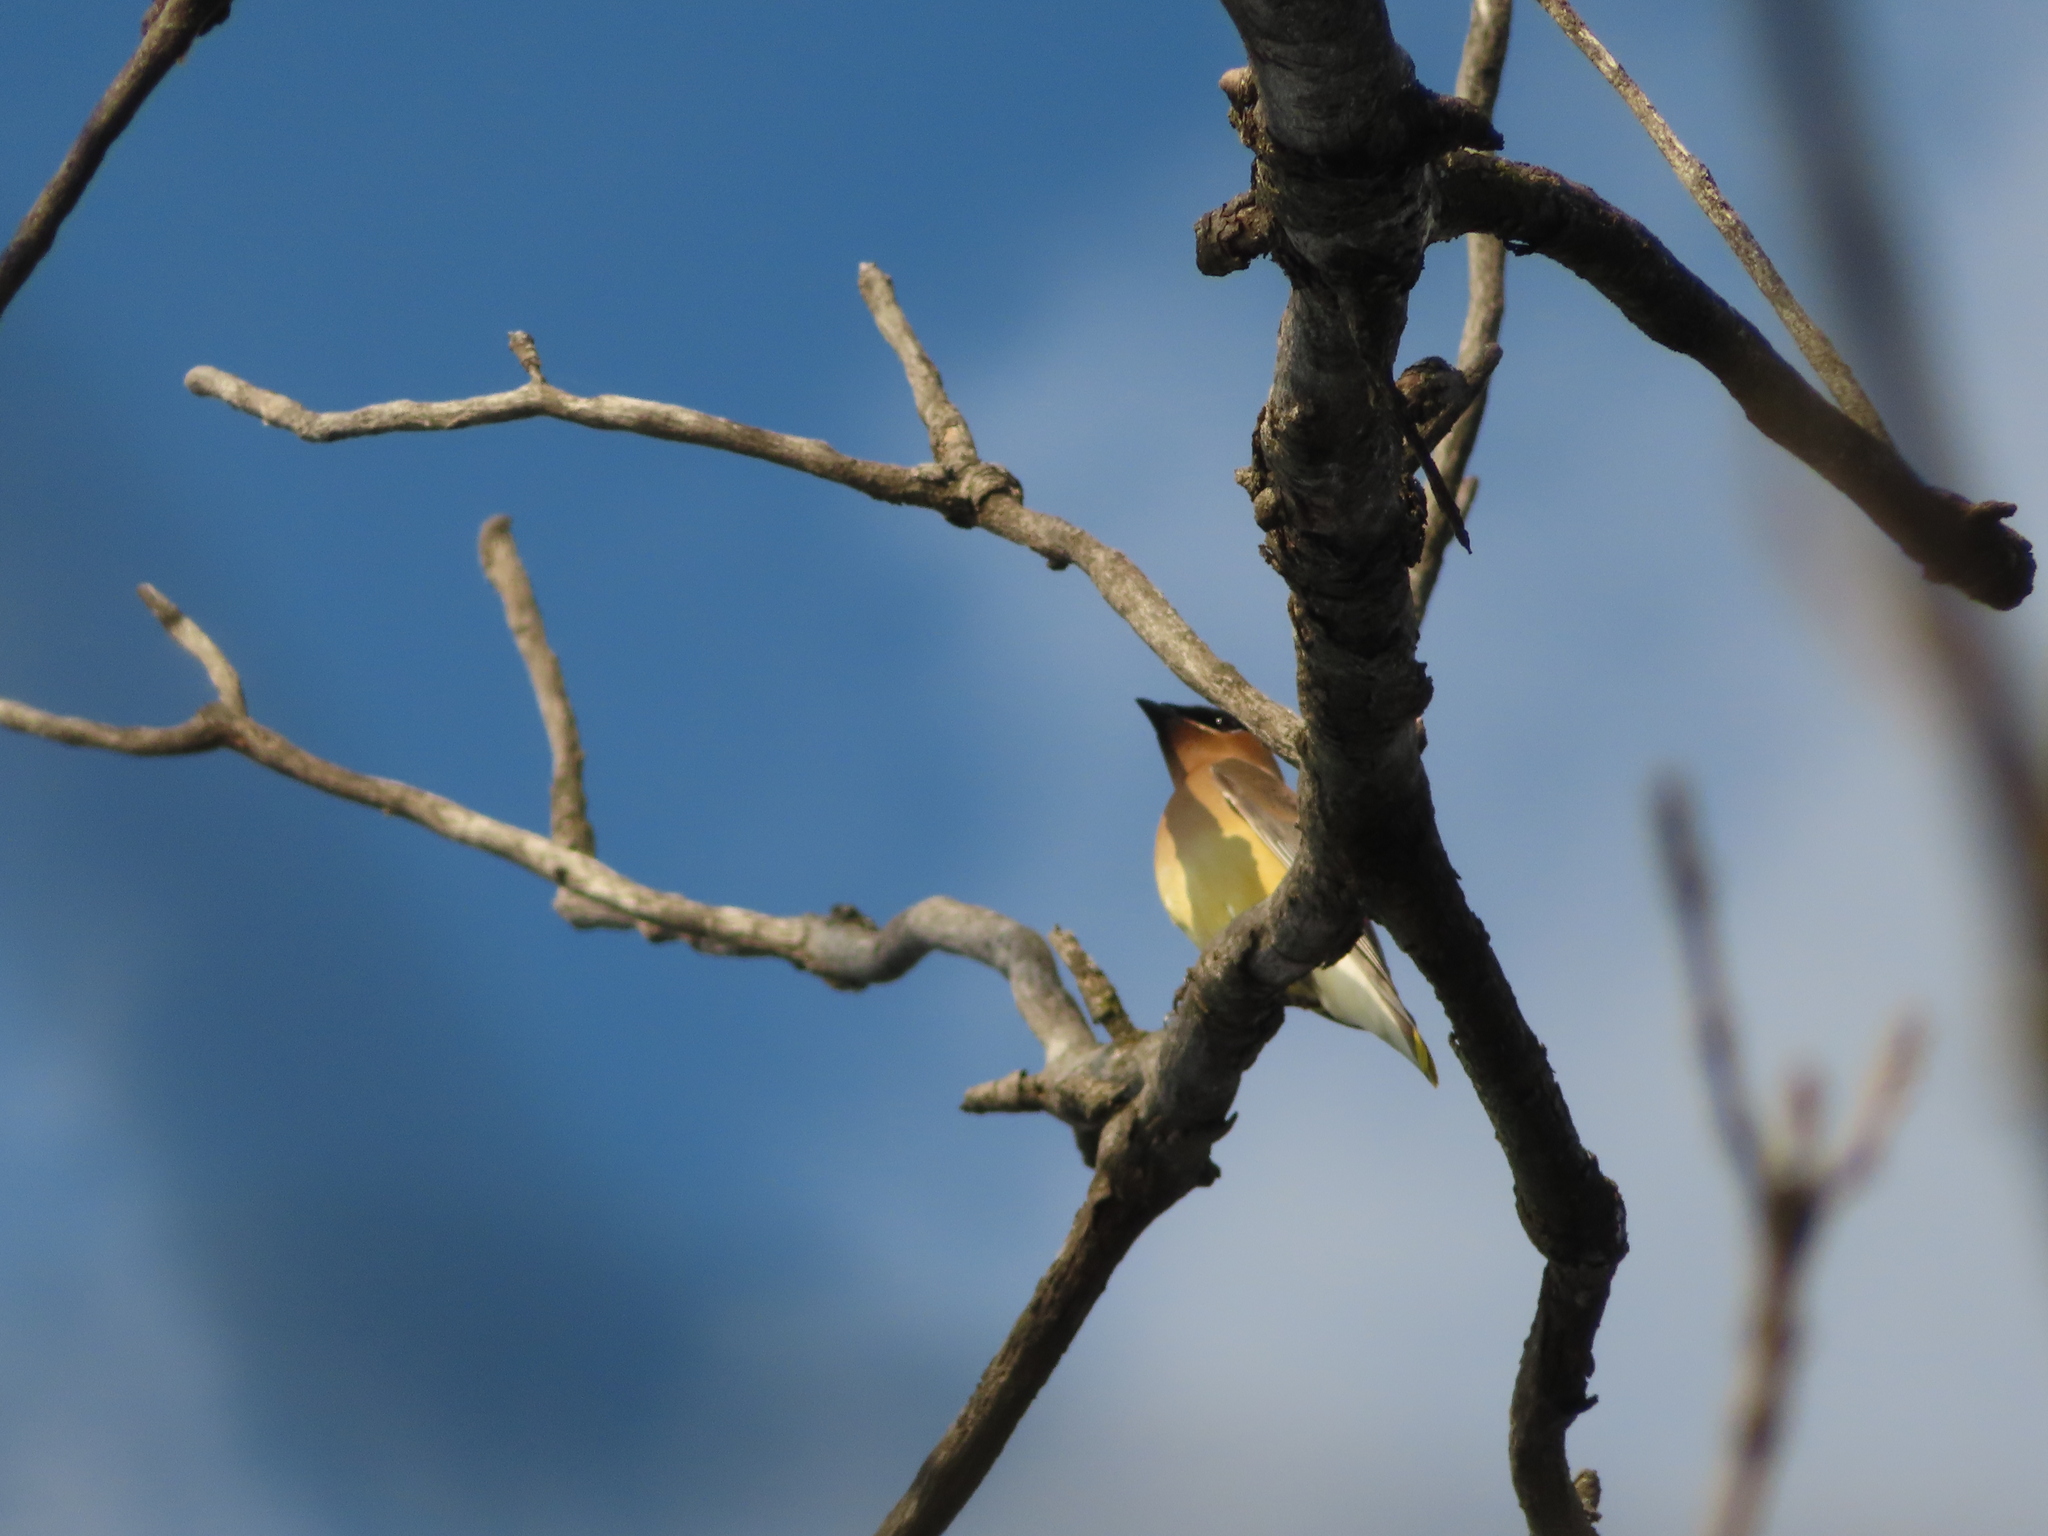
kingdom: Animalia
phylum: Chordata
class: Aves
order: Passeriformes
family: Bombycillidae
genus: Bombycilla
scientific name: Bombycilla cedrorum
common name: Cedar waxwing
